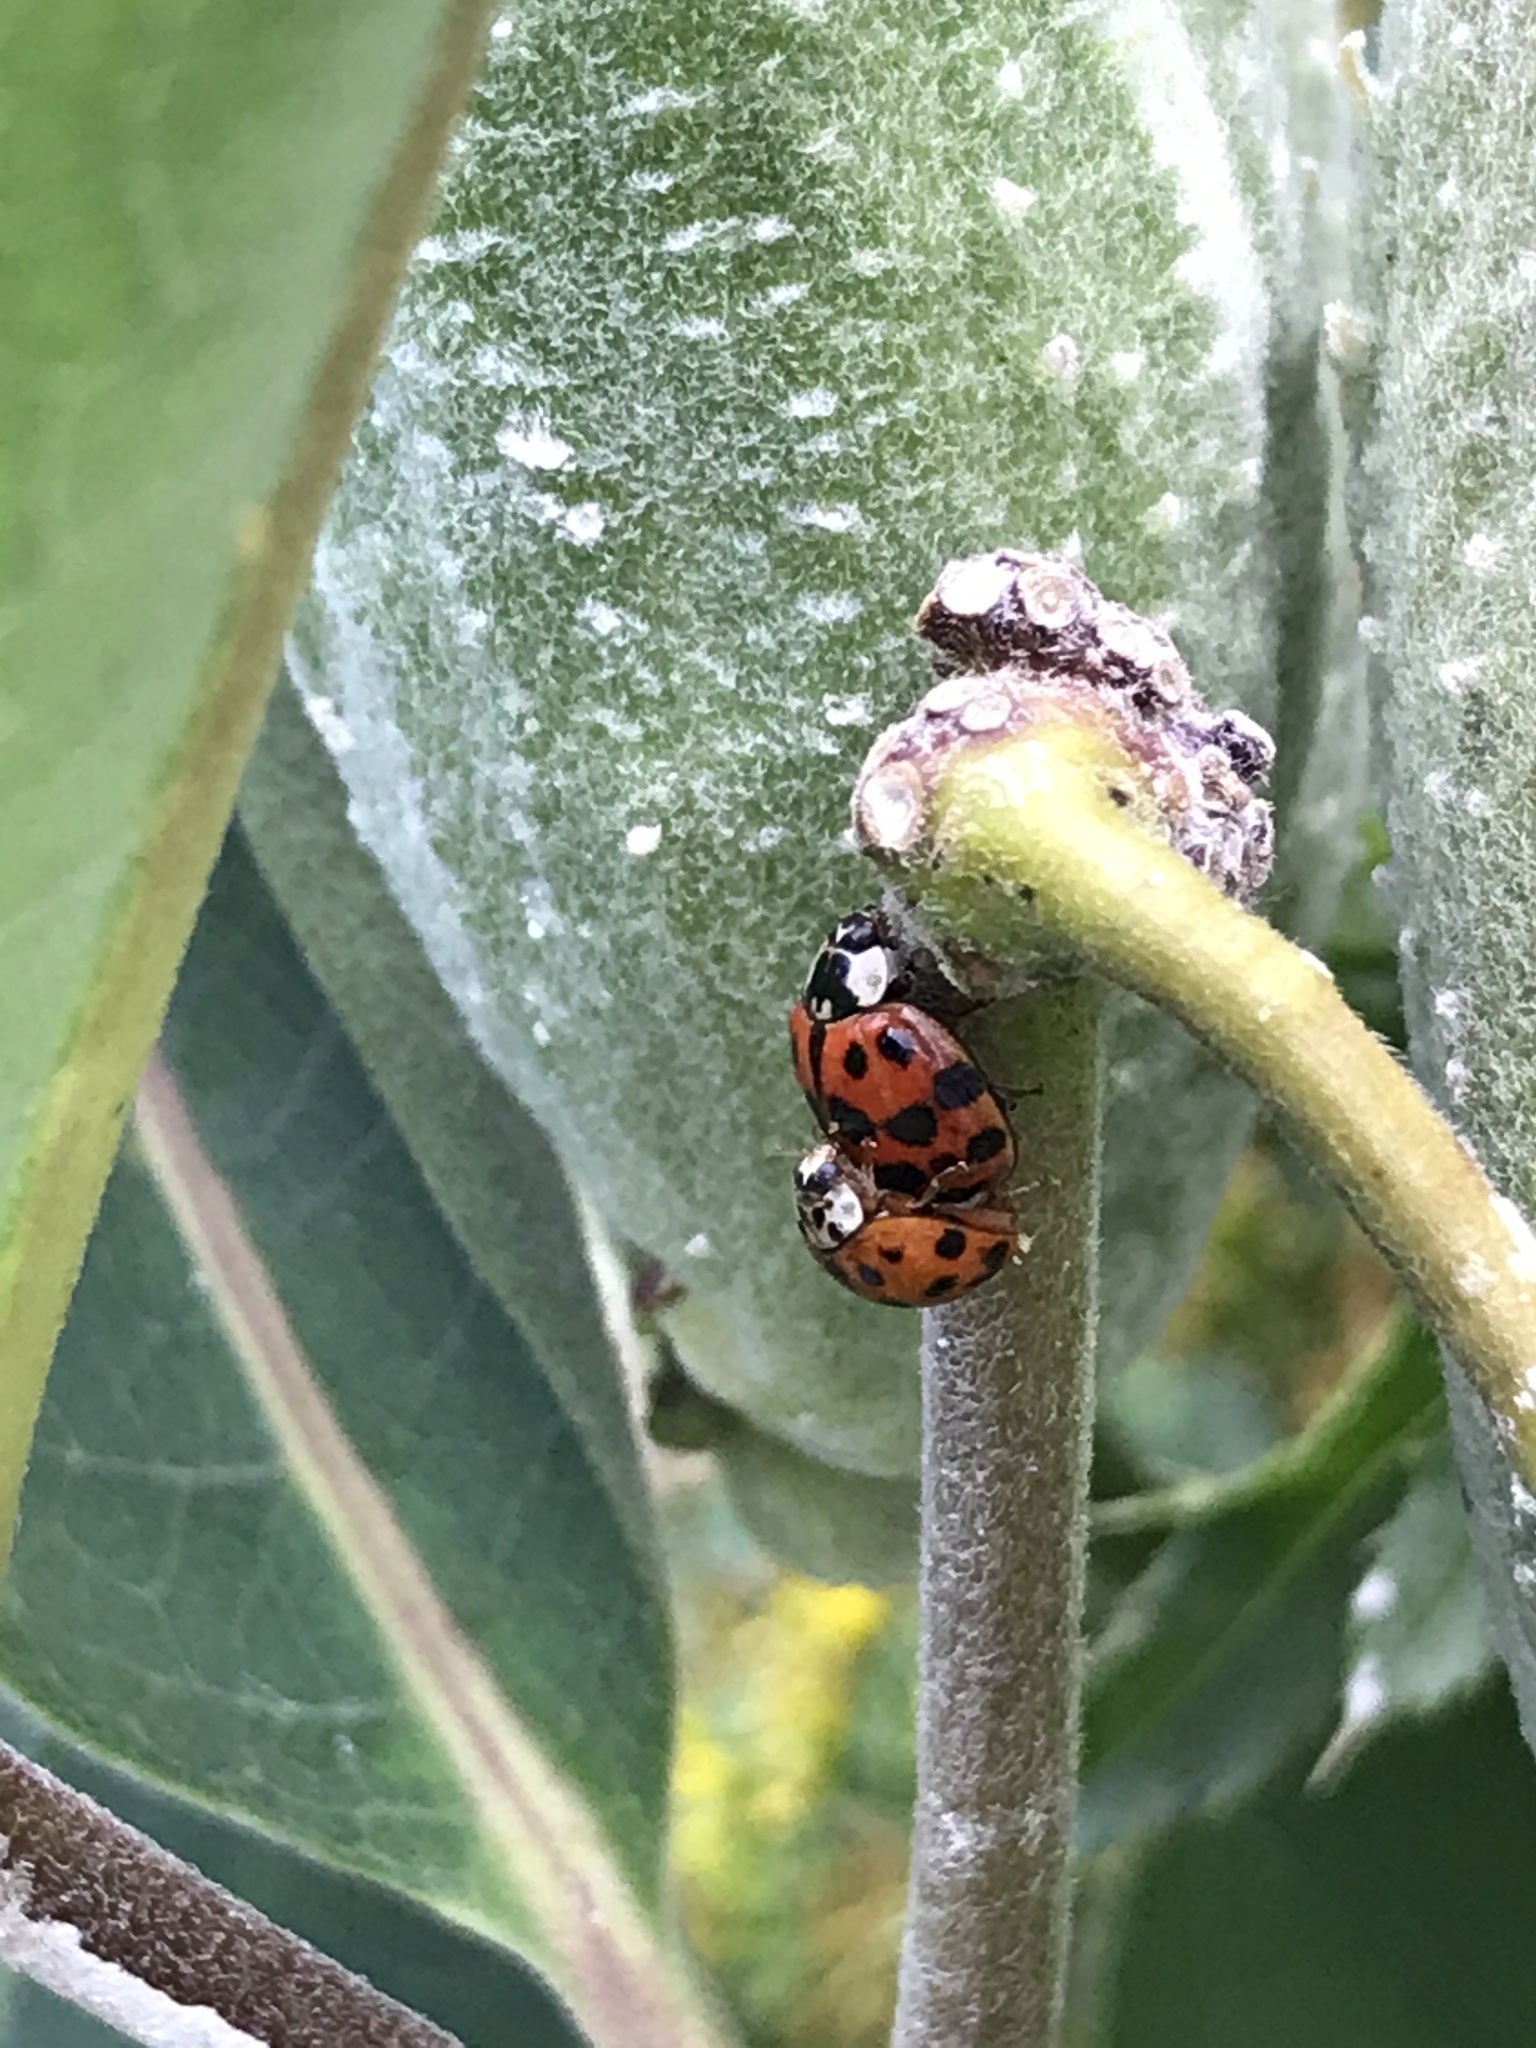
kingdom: Animalia
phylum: Arthropoda
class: Insecta
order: Coleoptera
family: Coccinellidae
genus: Harmonia
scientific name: Harmonia axyridis
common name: Harlequin ladybird
